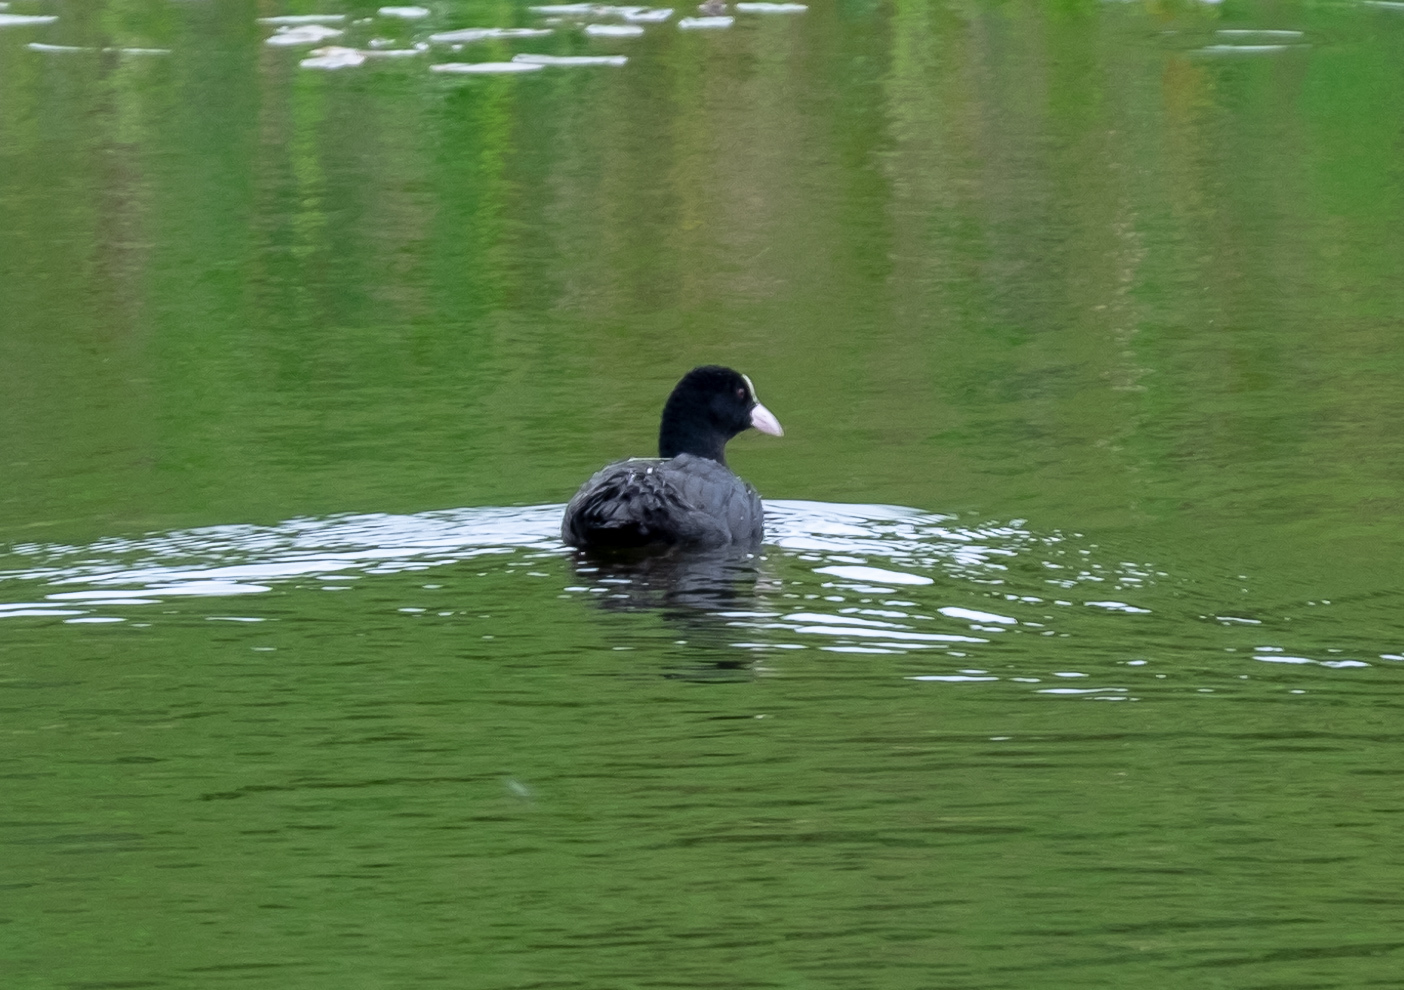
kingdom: Animalia
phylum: Chordata
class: Aves
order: Gruiformes
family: Rallidae
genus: Fulica
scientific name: Fulica atra
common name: Eurasian coot
